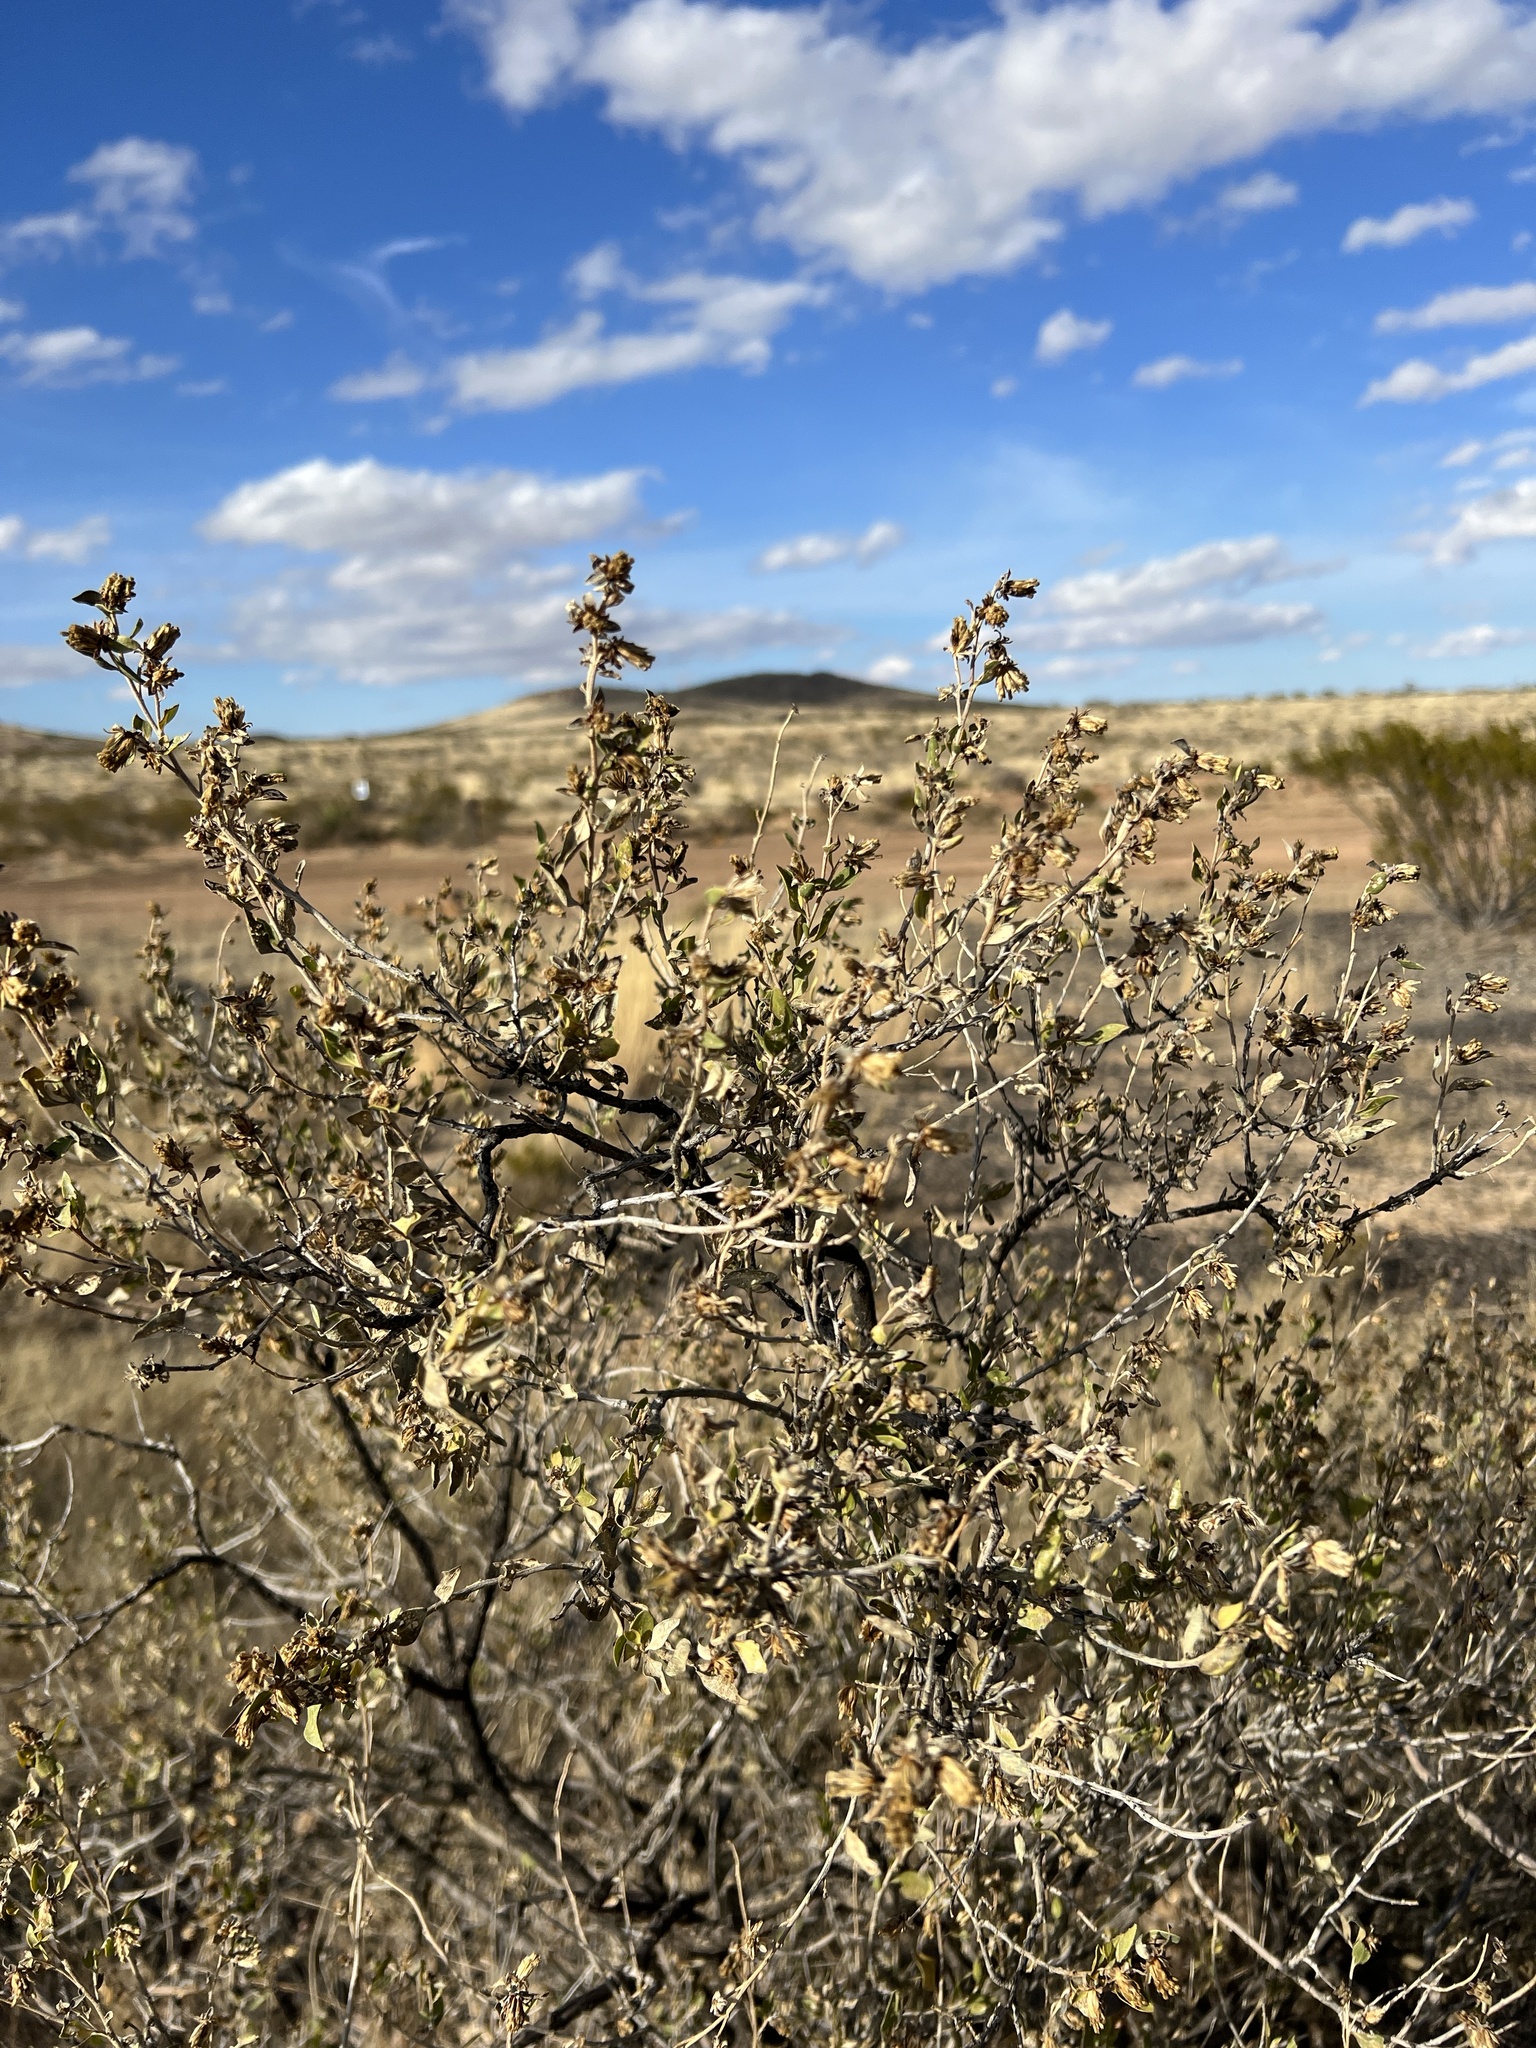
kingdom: Plantae
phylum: Tracheophyta
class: Magnoliopsida
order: Asterales
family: Asteraceae
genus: Flourensia
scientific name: Flourensia cernua
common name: Varnishbush
